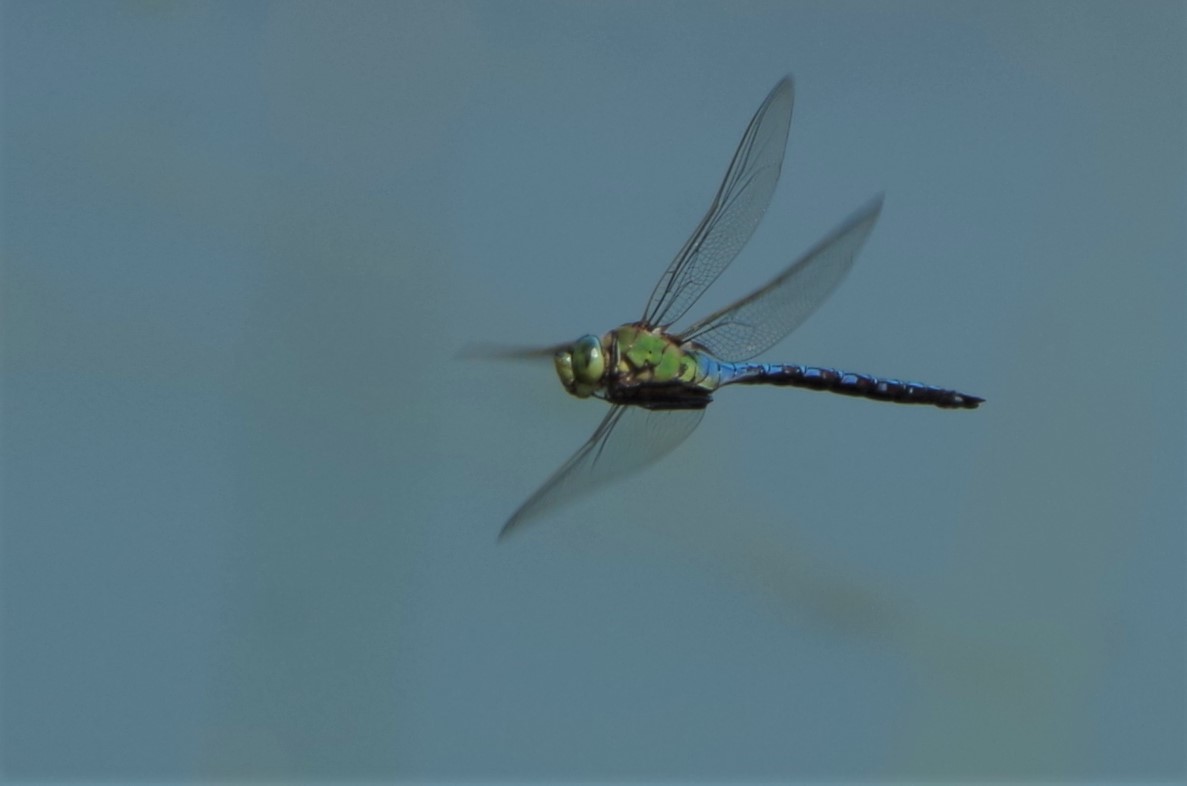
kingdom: Animalia
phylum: Arthropoda
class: Insecta
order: Odonata
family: Aeshnidae
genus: Anax
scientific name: Anax imperator
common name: Emperor dragonfly
